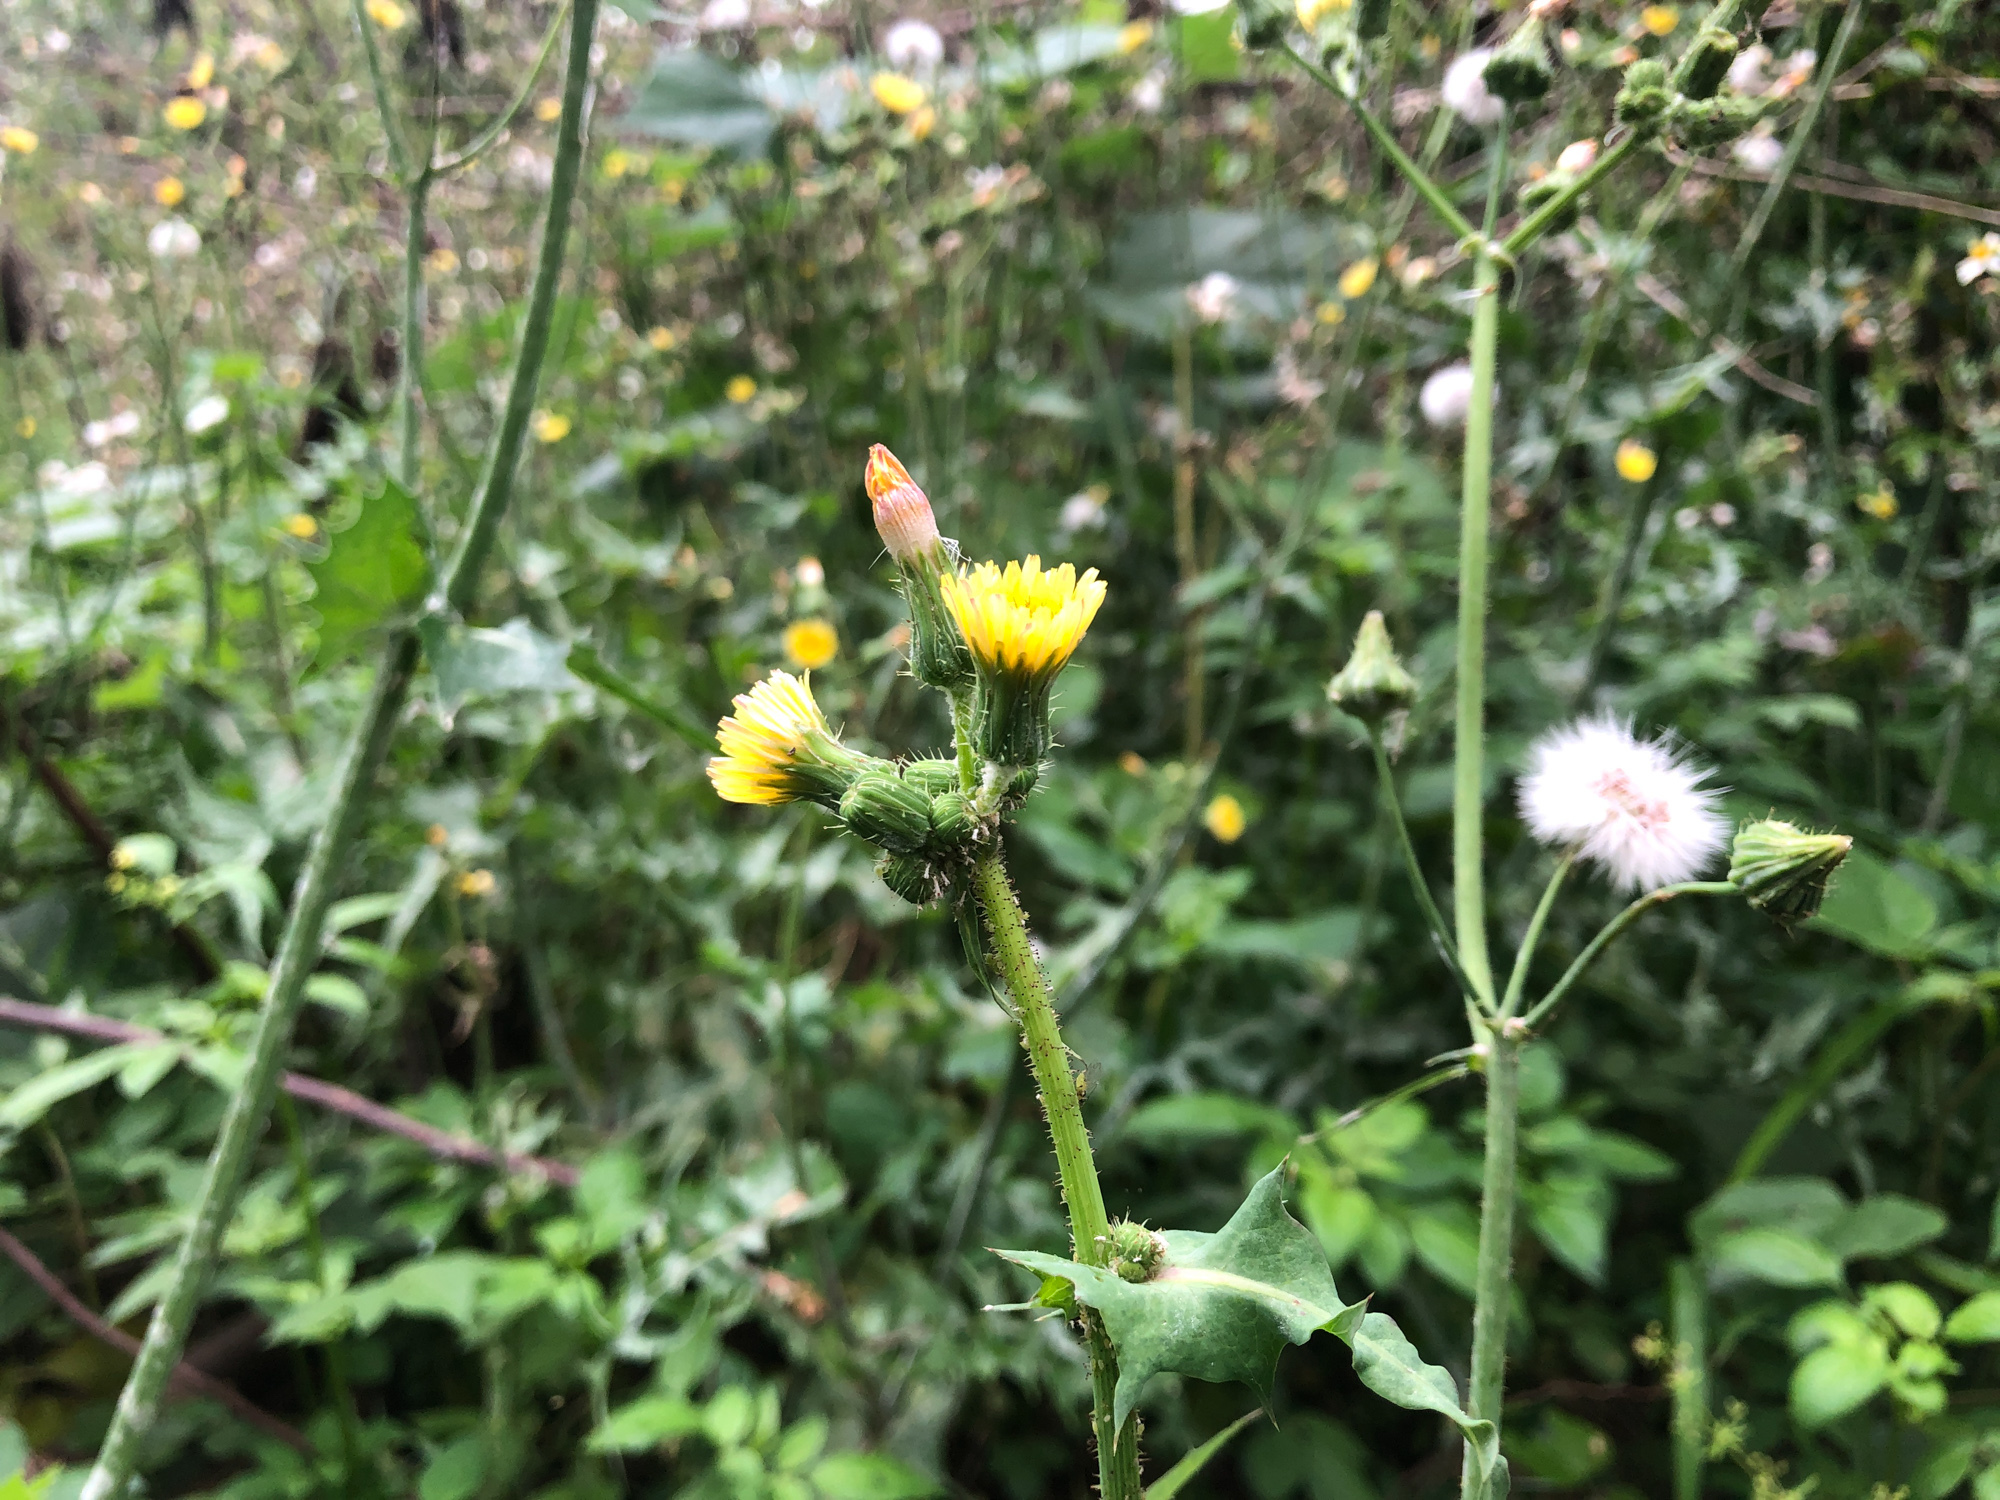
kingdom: Plantae
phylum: Tracheophyta
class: Magnoliopsida
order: Asterales
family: Asteraceae
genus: Sonchus
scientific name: Sonchus oleraceus
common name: Common sowthistle
